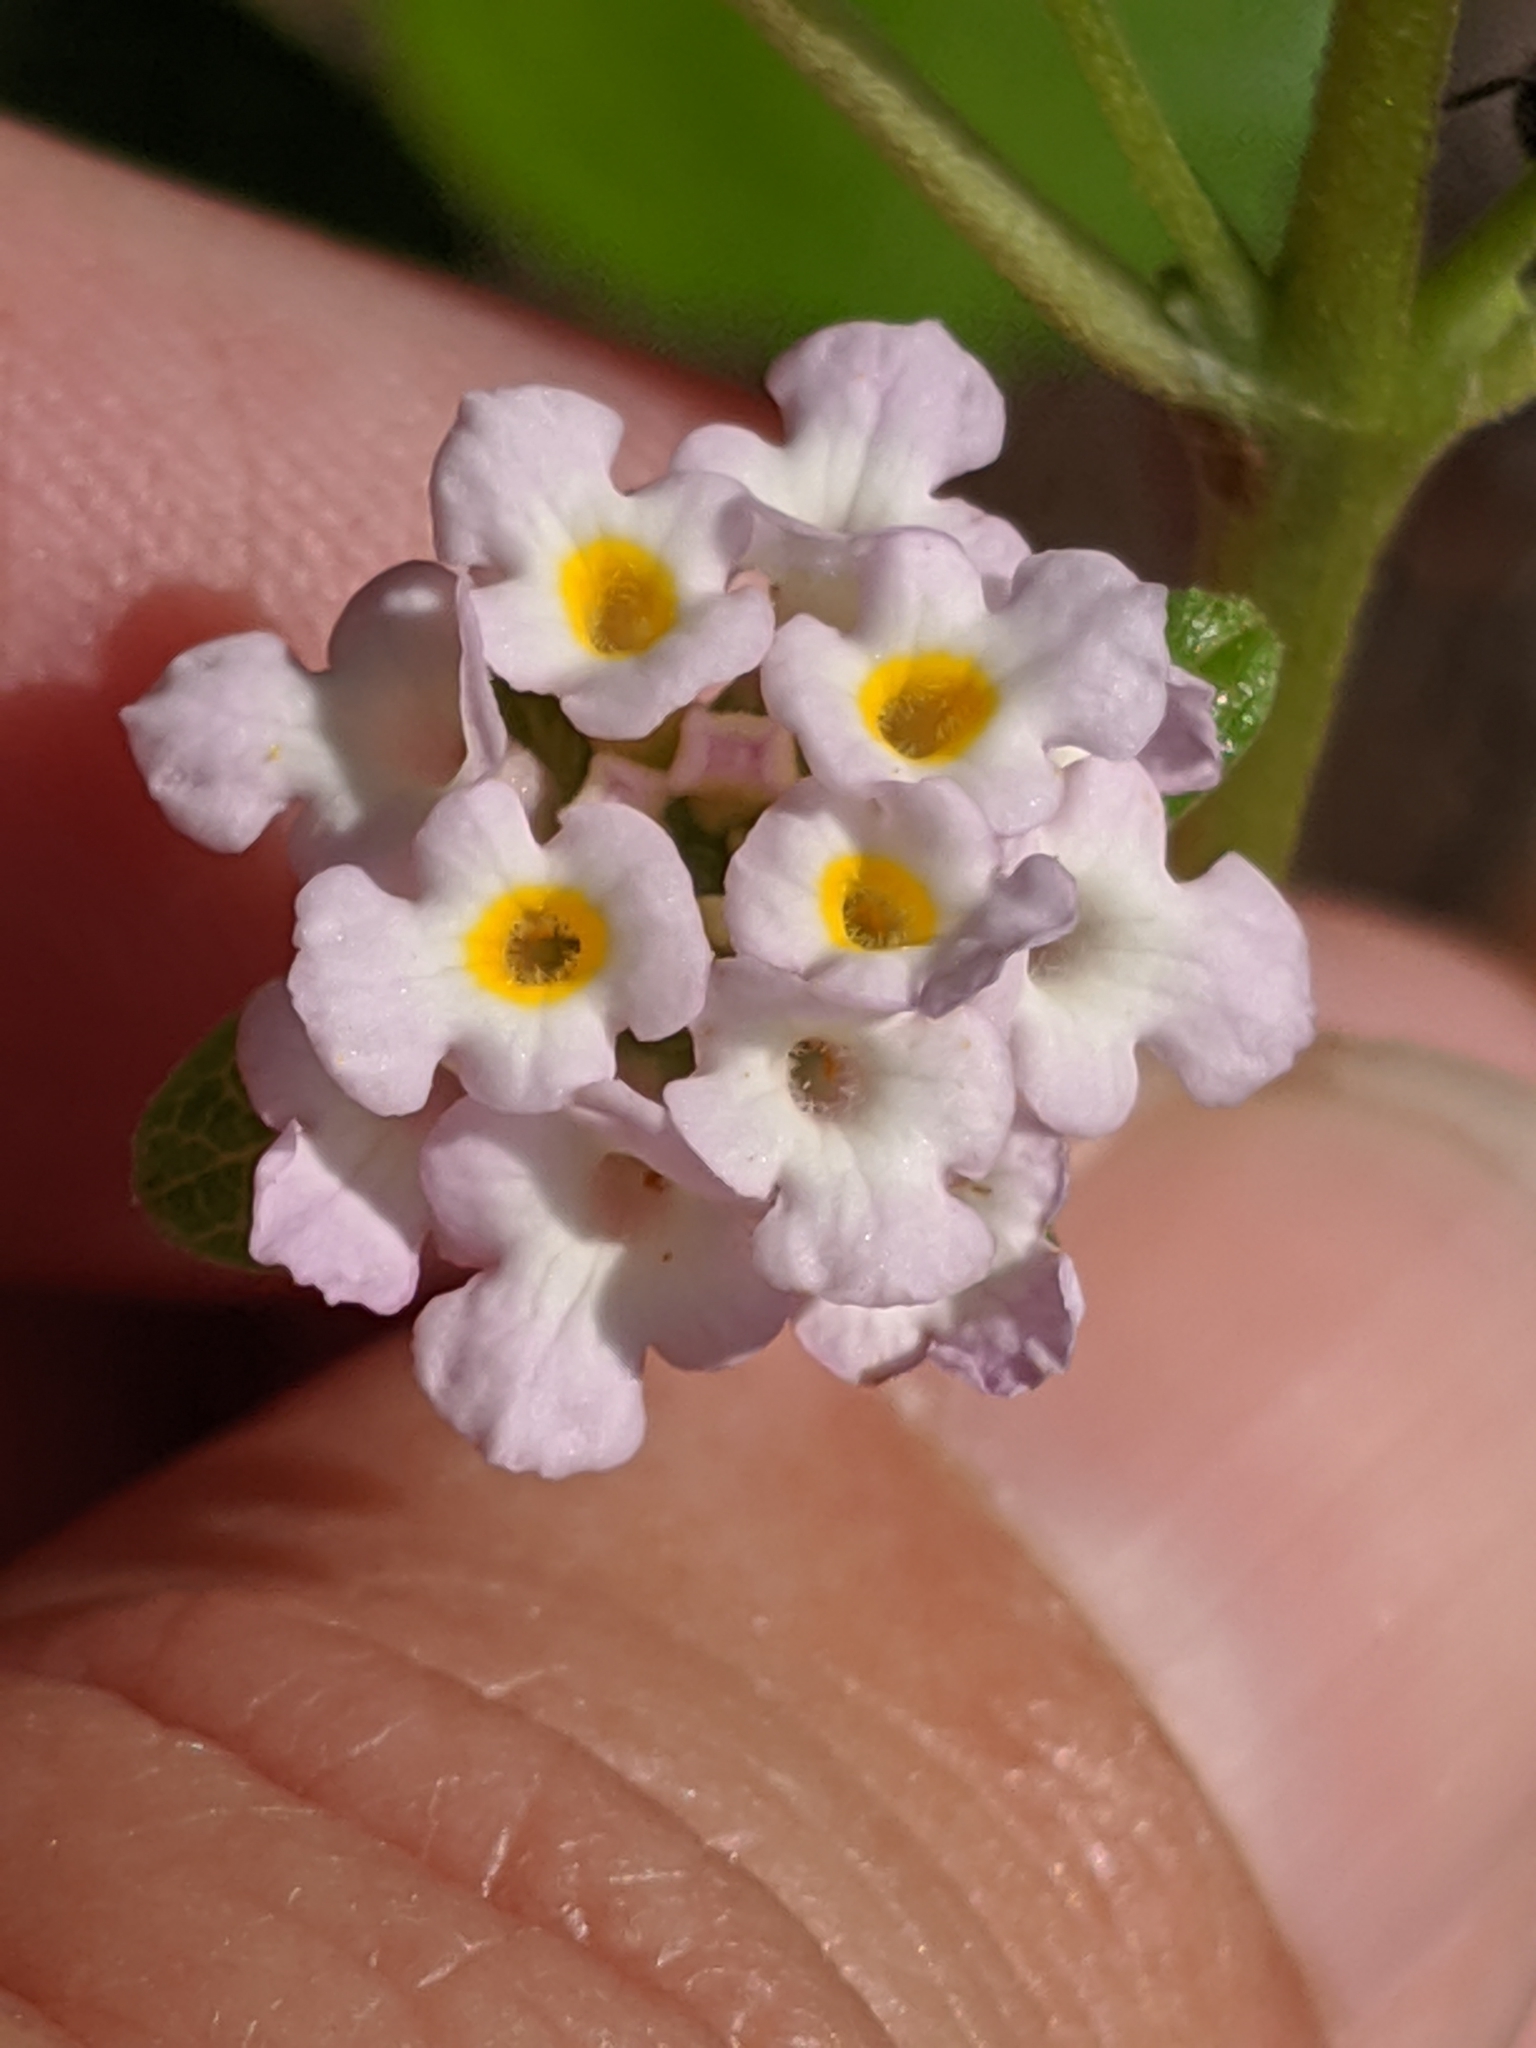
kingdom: Plantae
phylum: Tracheophyta
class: Magnoliopsida
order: Lamiales
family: Verbenaceae
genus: Lantana
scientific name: Lantana involucrata
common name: Black sage
